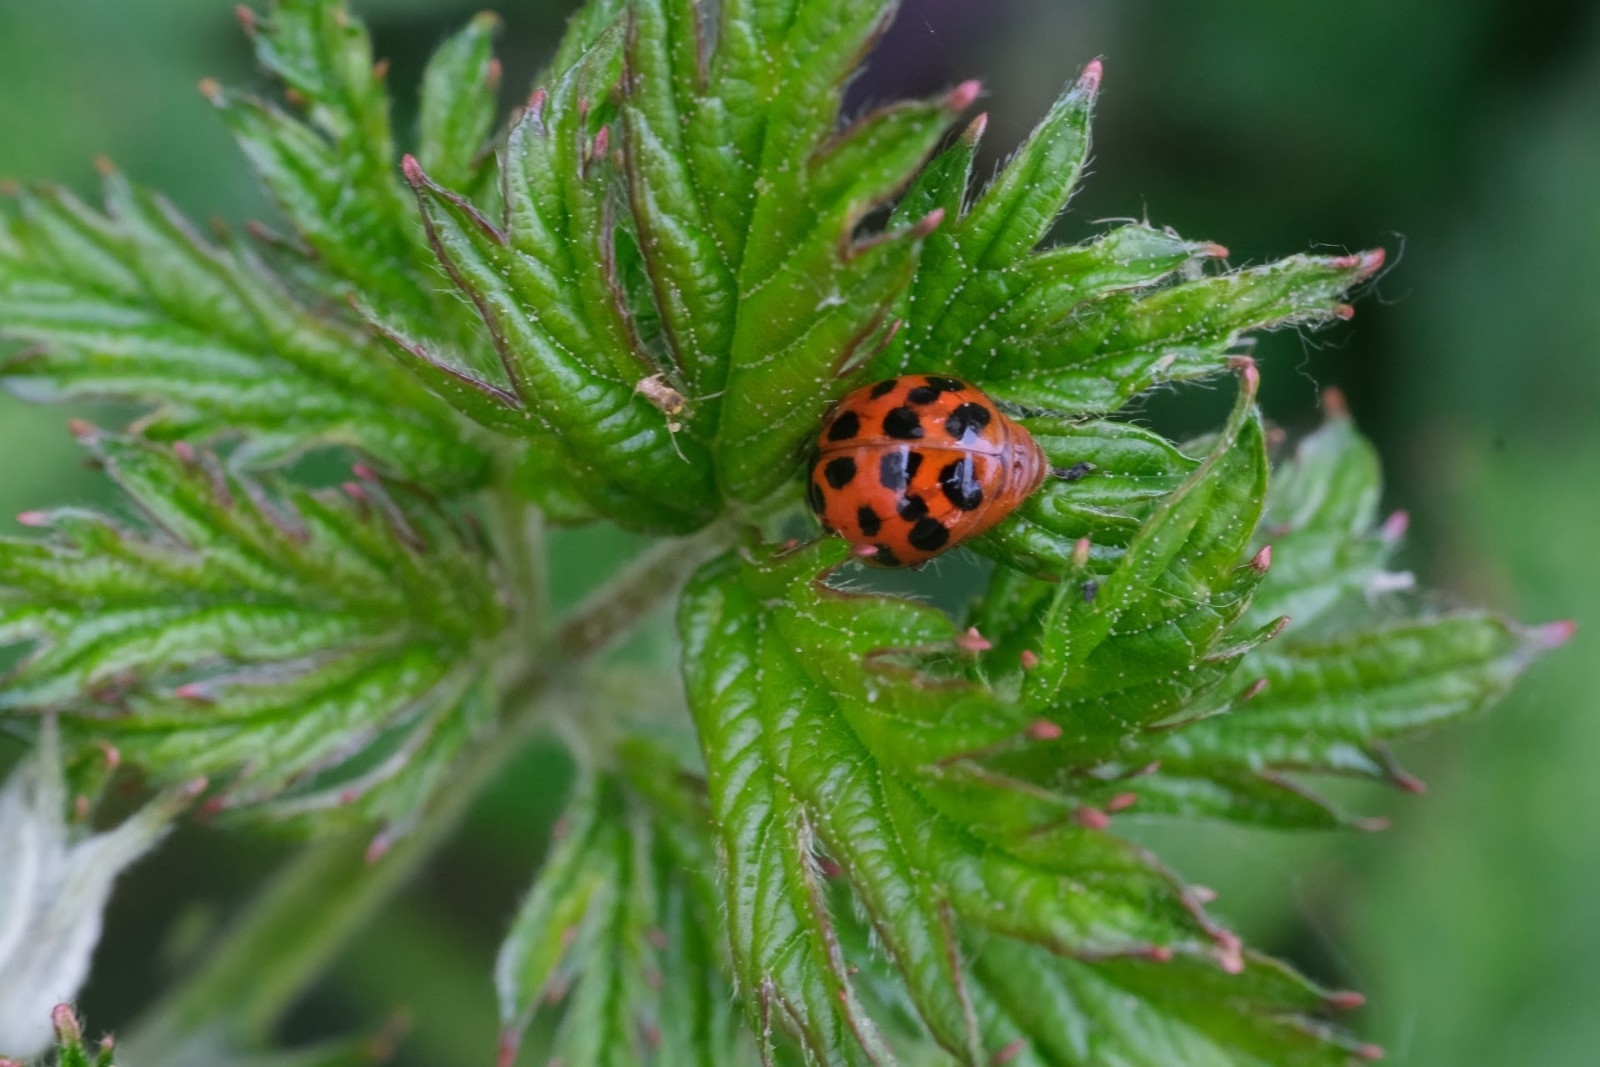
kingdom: Animalia
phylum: Arthropoda
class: Insecta
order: Coleoptera
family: Coccinellidae
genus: Harmonia
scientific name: Harmonia axyridis
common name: Harlequin ladybird
